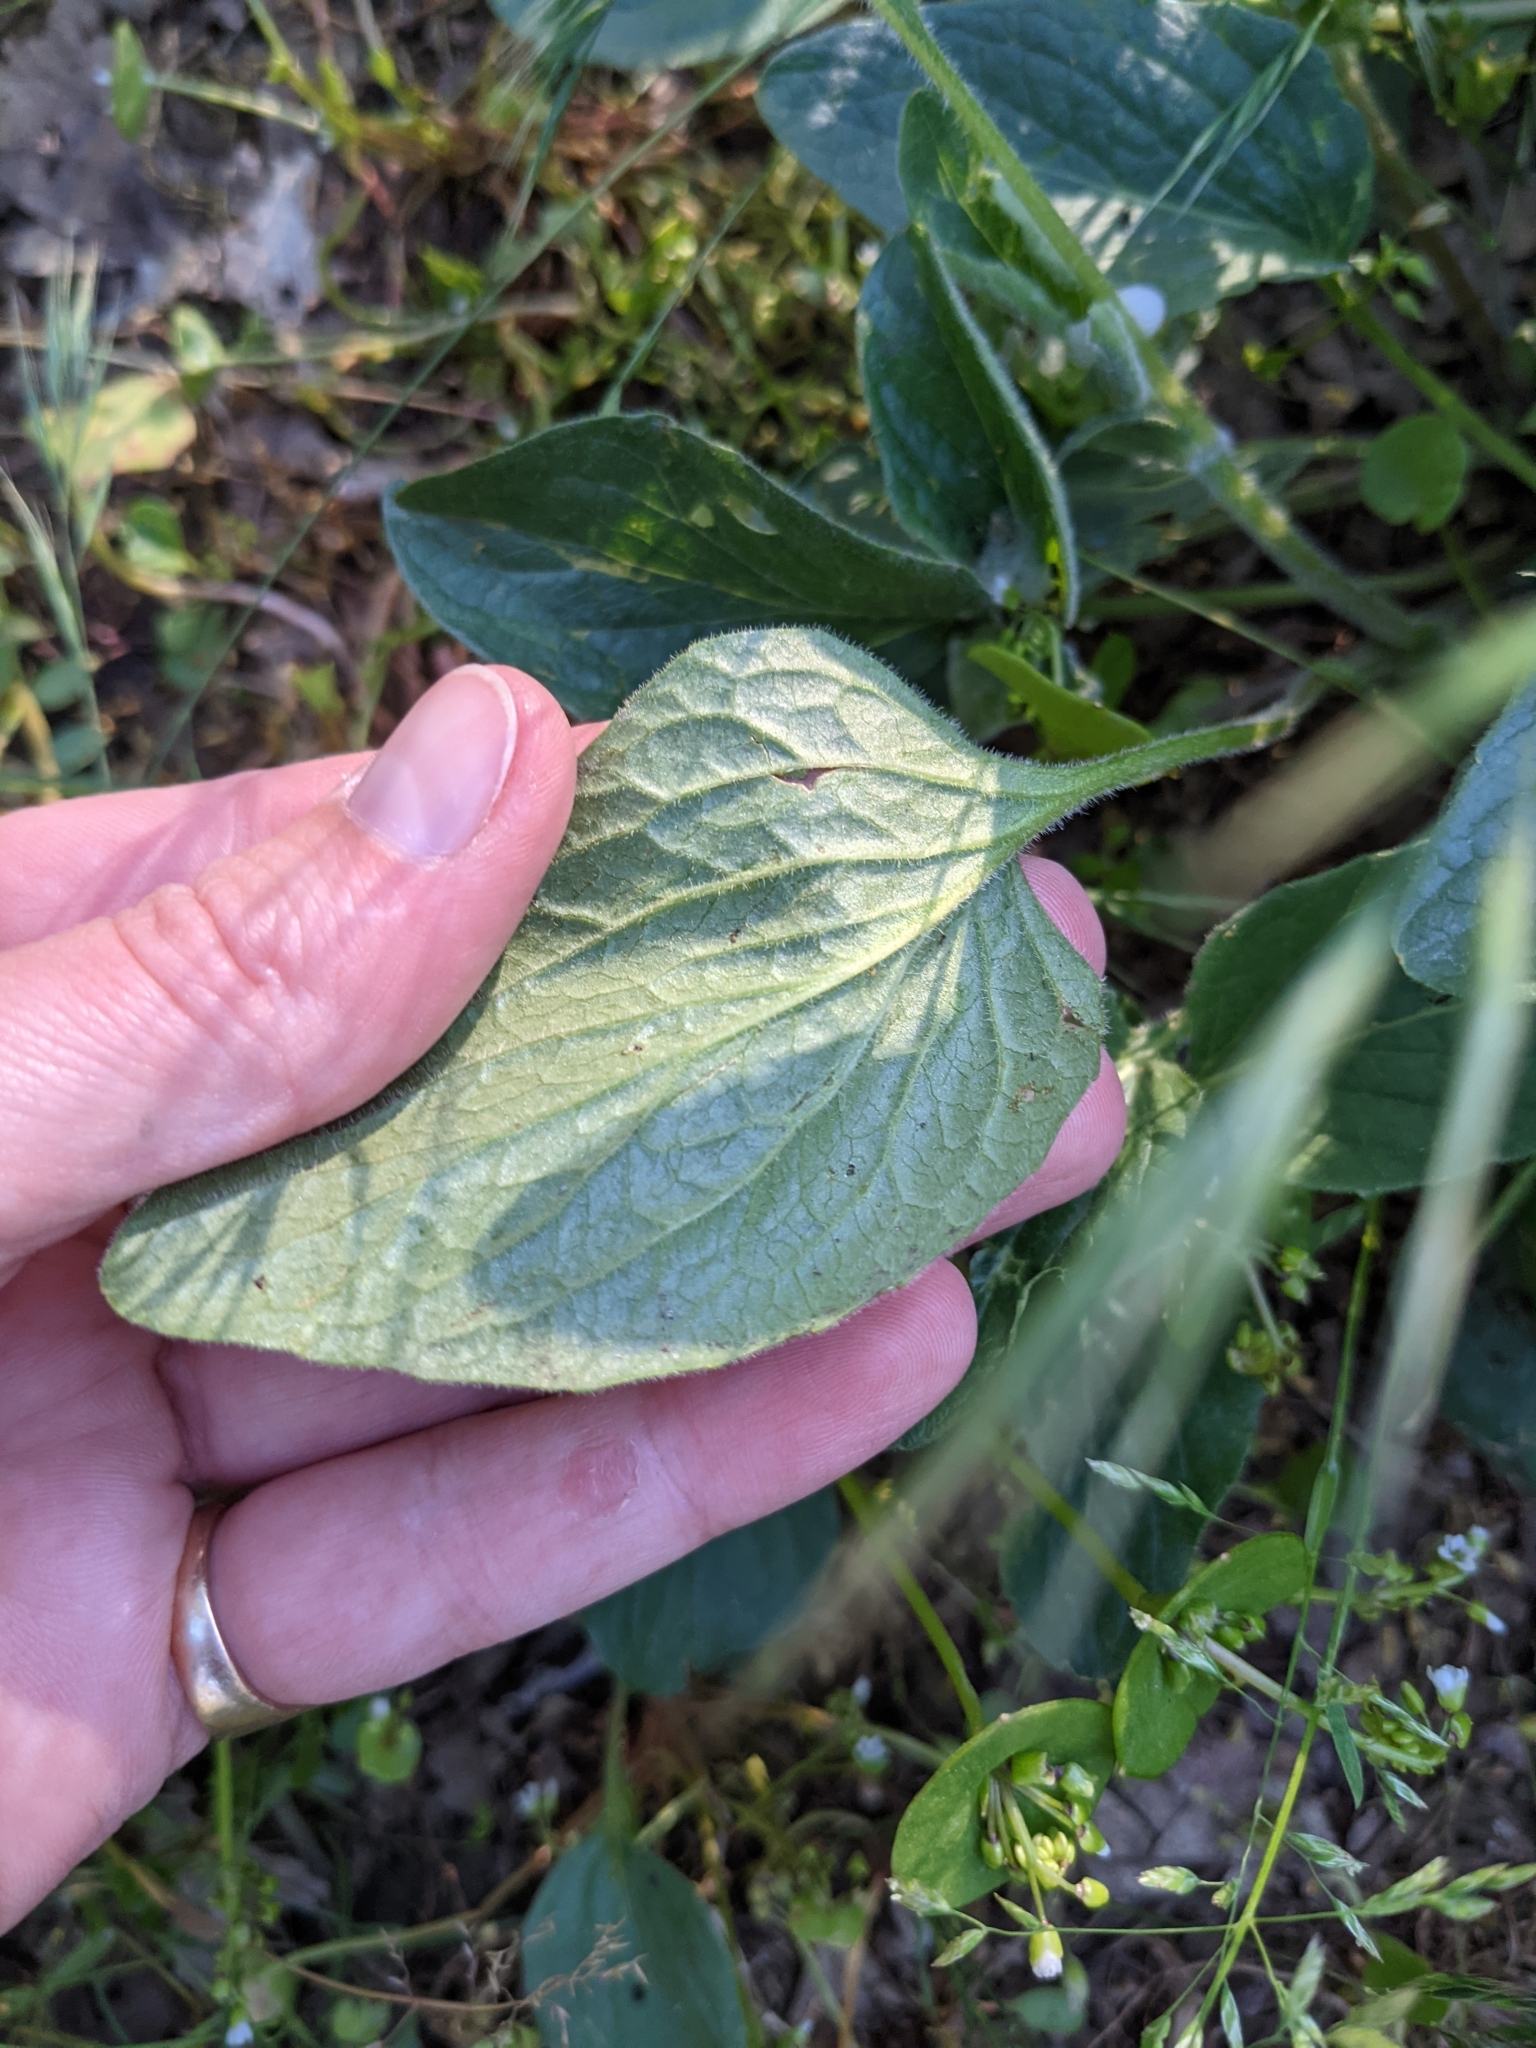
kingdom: Plantae
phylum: Tracheophyta
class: Magnoliopsida
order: Malpighiales
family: Violaceae
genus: Viola
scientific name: Viola praemorsa
